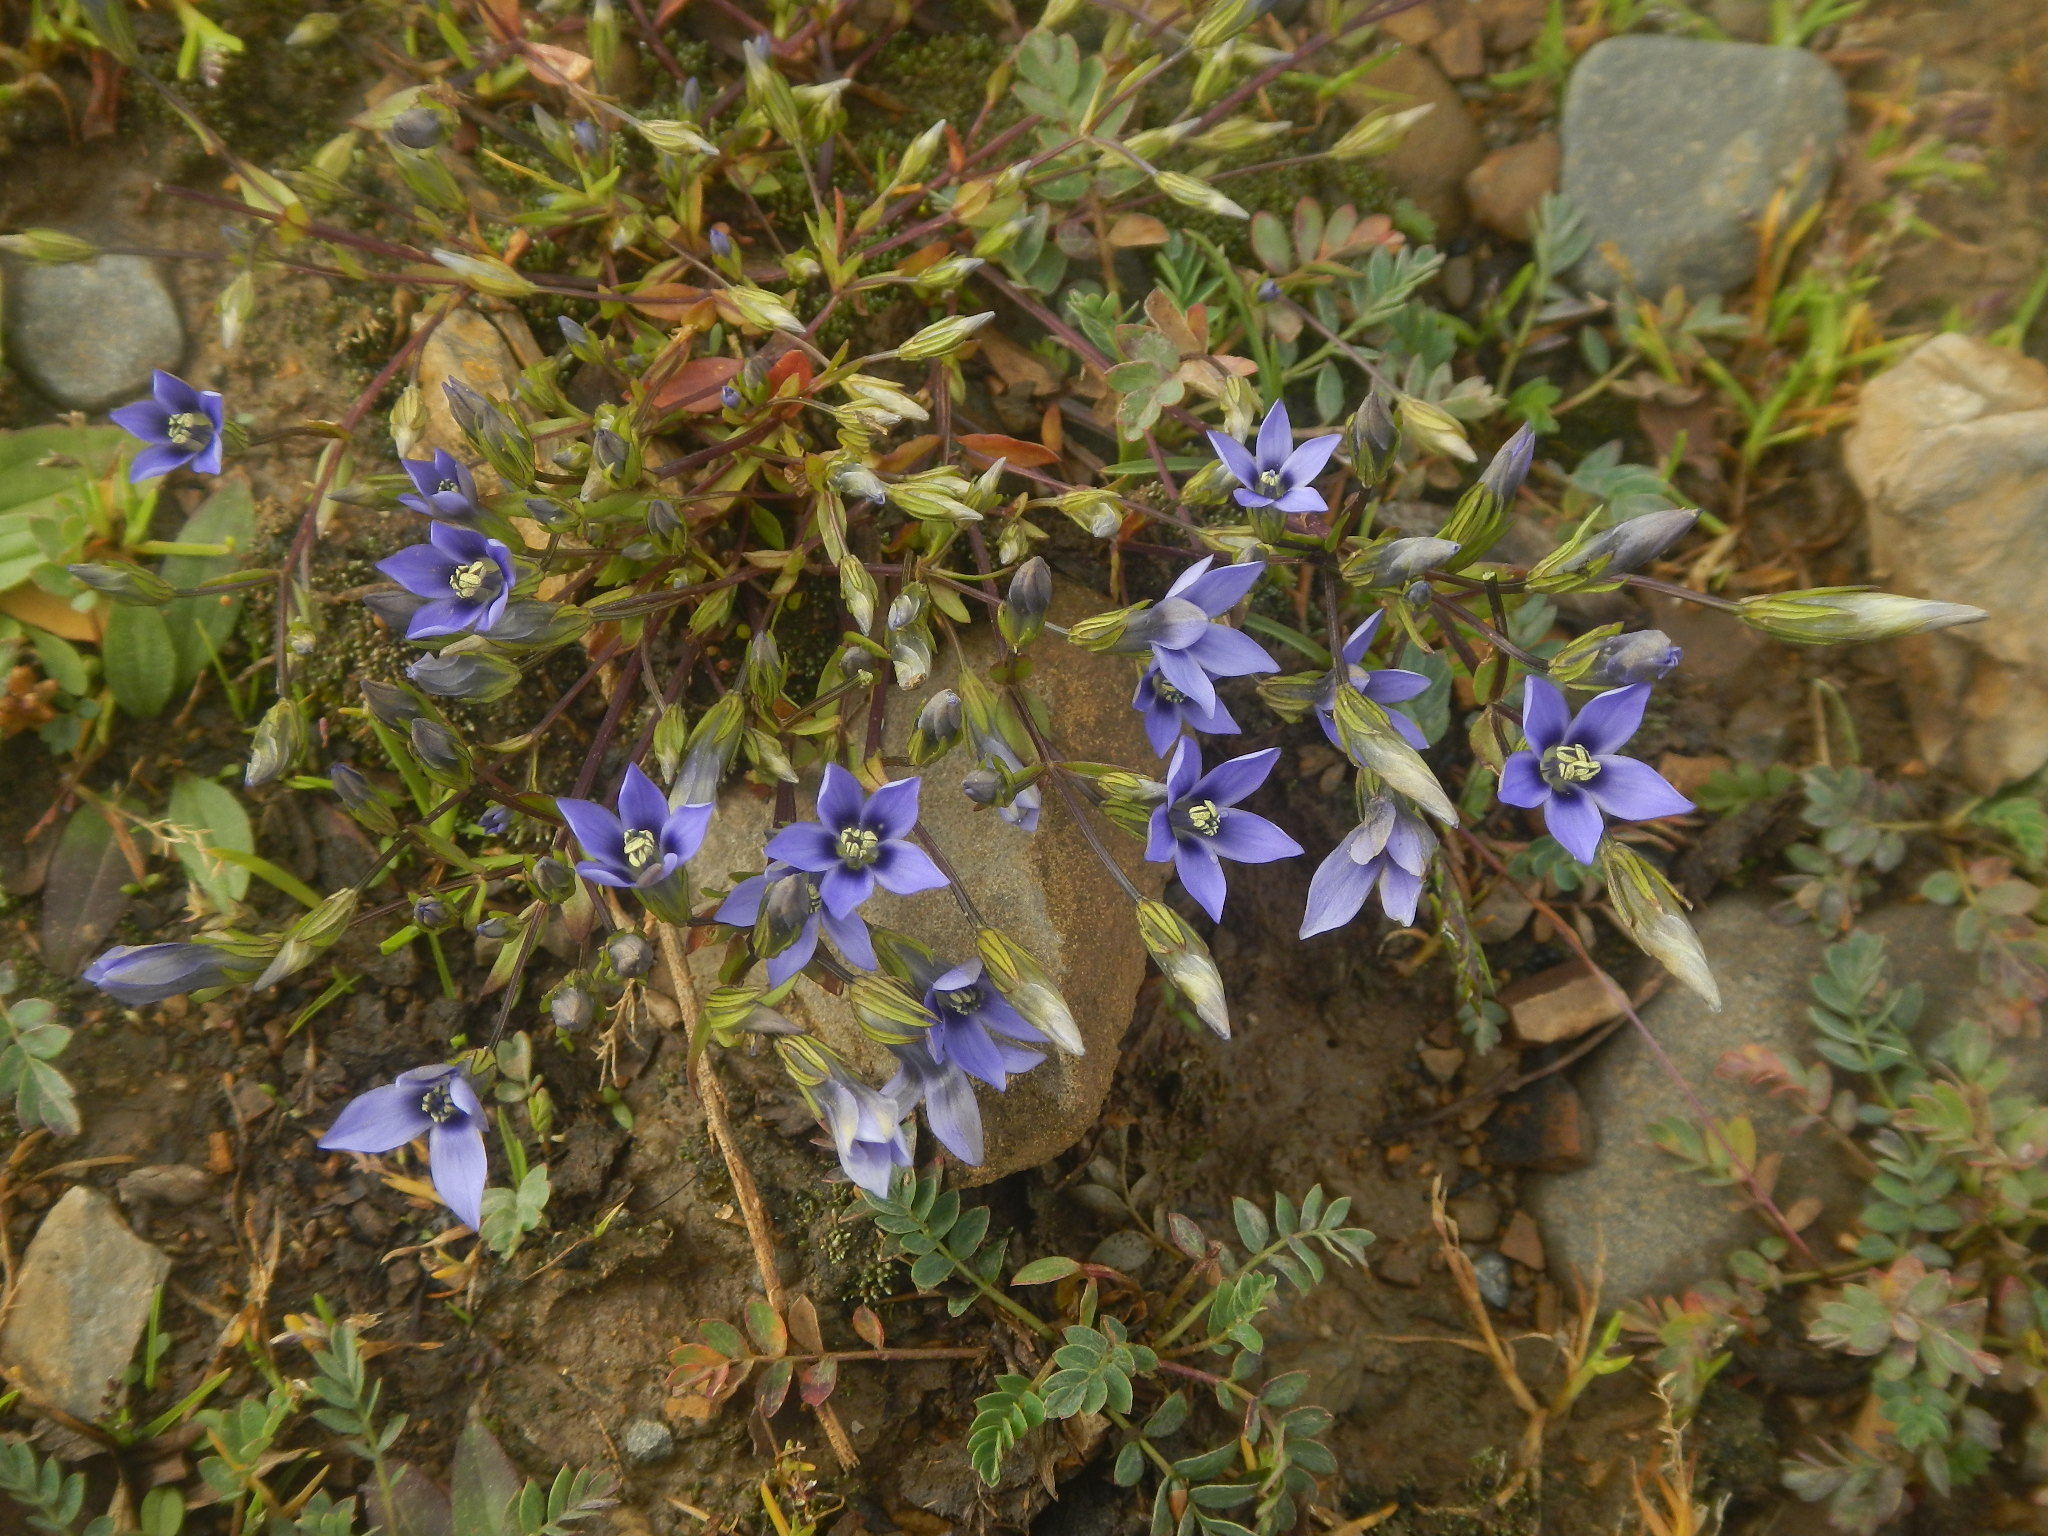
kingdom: Plantae
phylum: Tracheophyta
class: Magnoliopsida
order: Gentianales
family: Gentianaceae
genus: Gentianella
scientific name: Gentianella azurea
